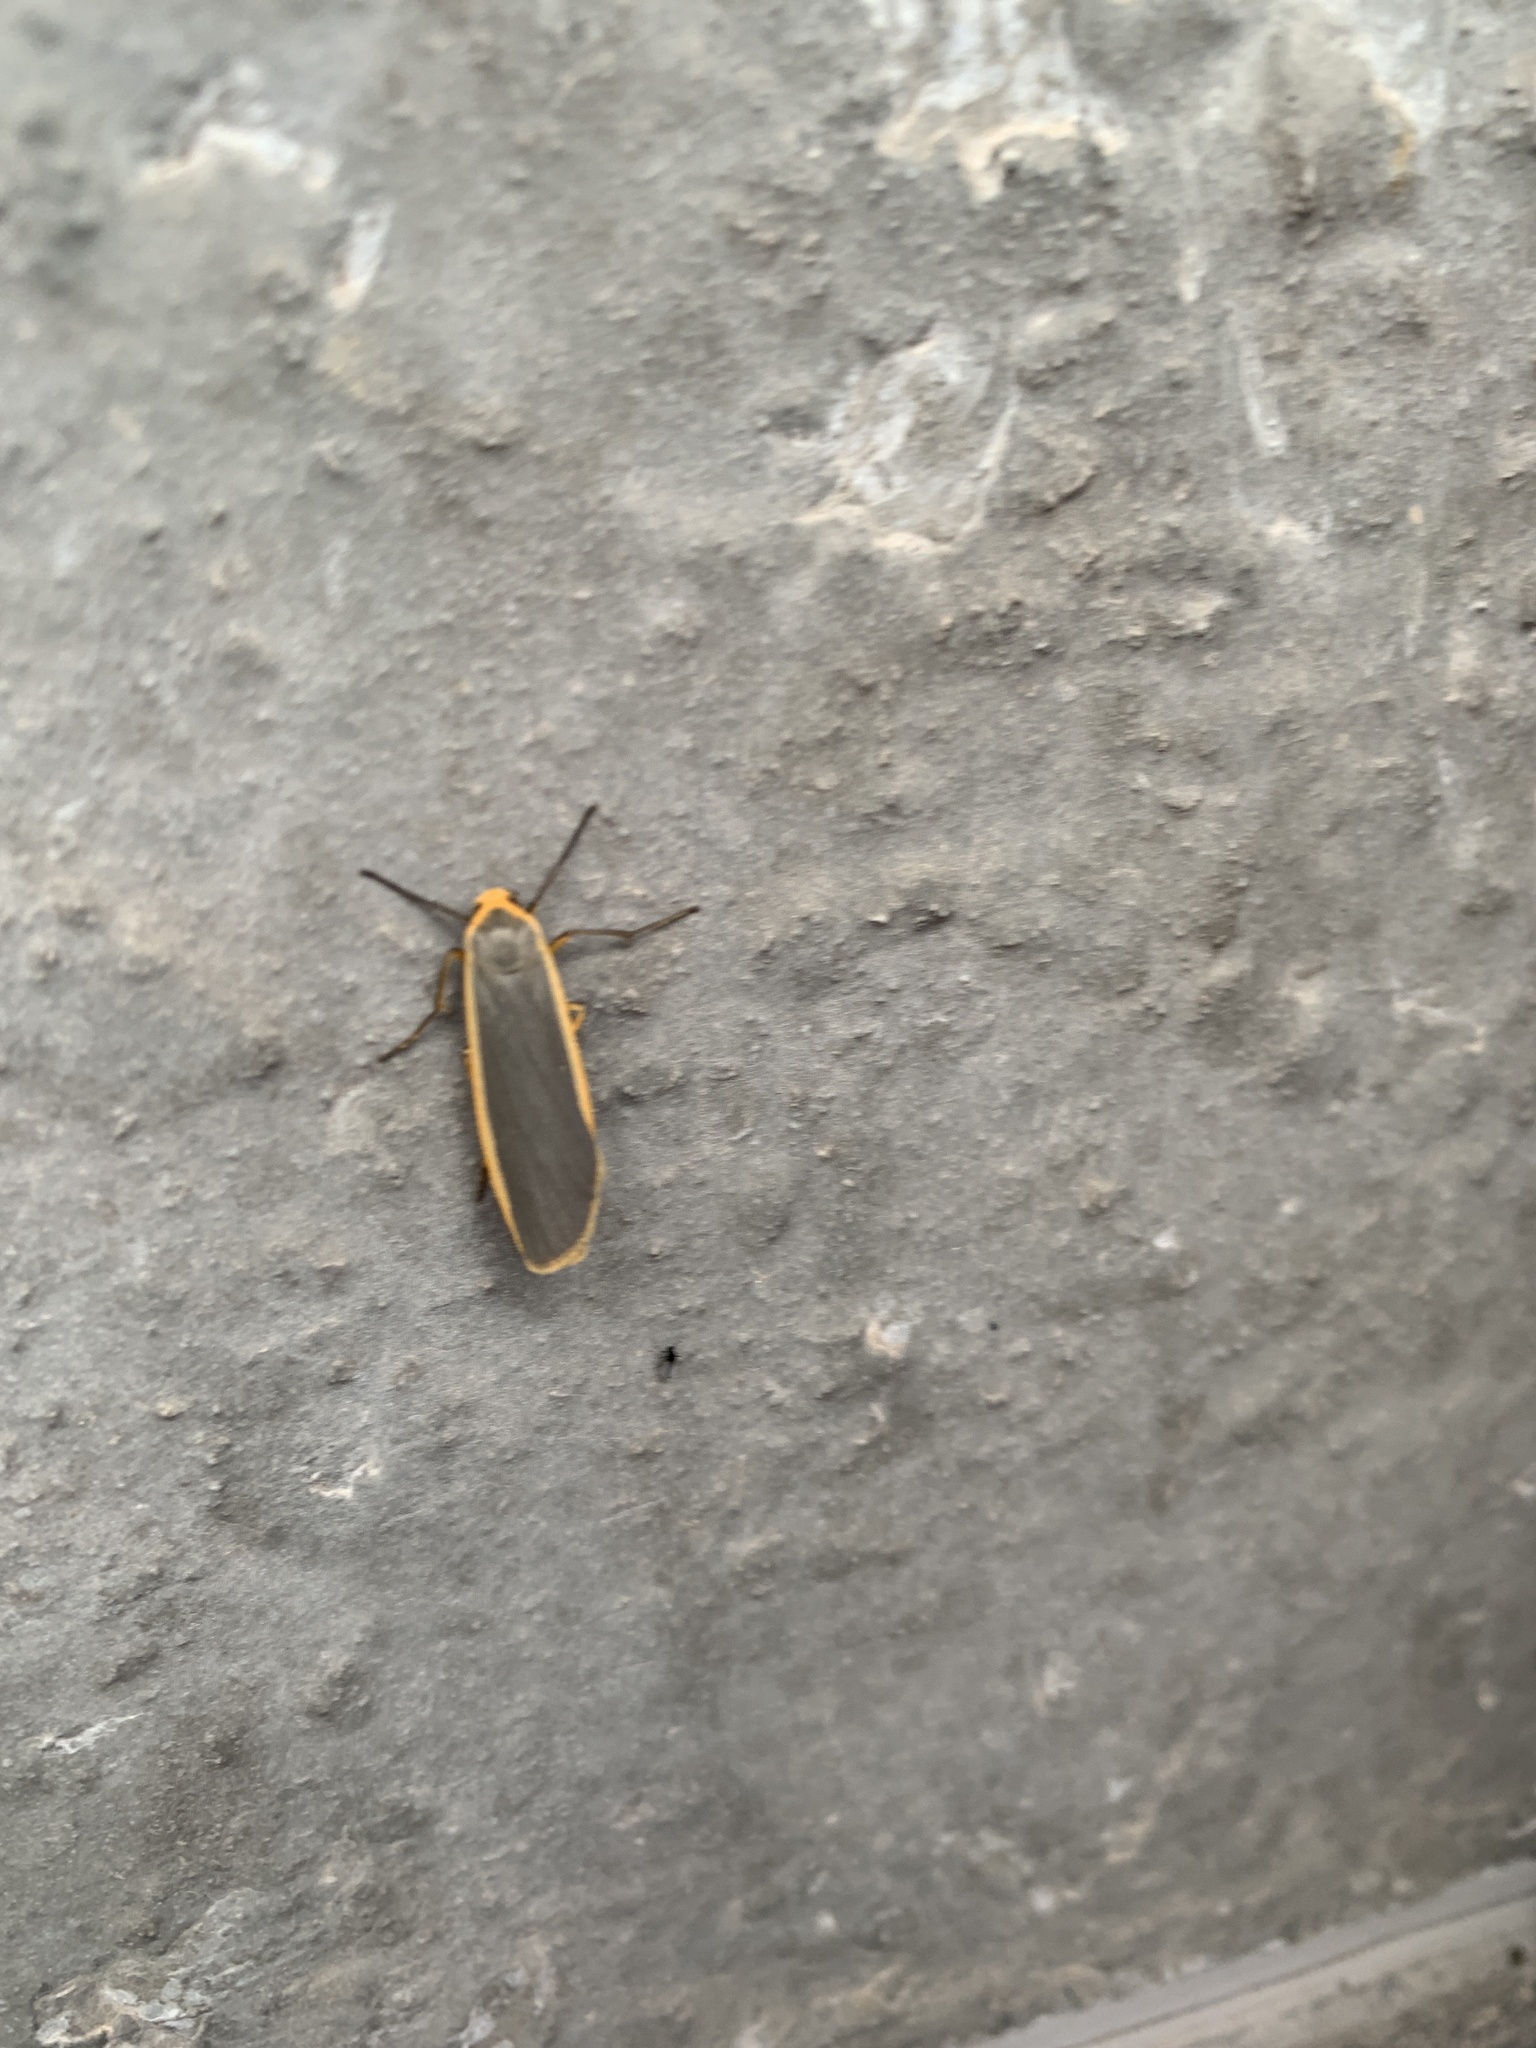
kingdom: Animalia
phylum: Arthropoda
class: Insecta
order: Lepidoptera
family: Erebidae
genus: Nyea
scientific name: Nyea lurideola
